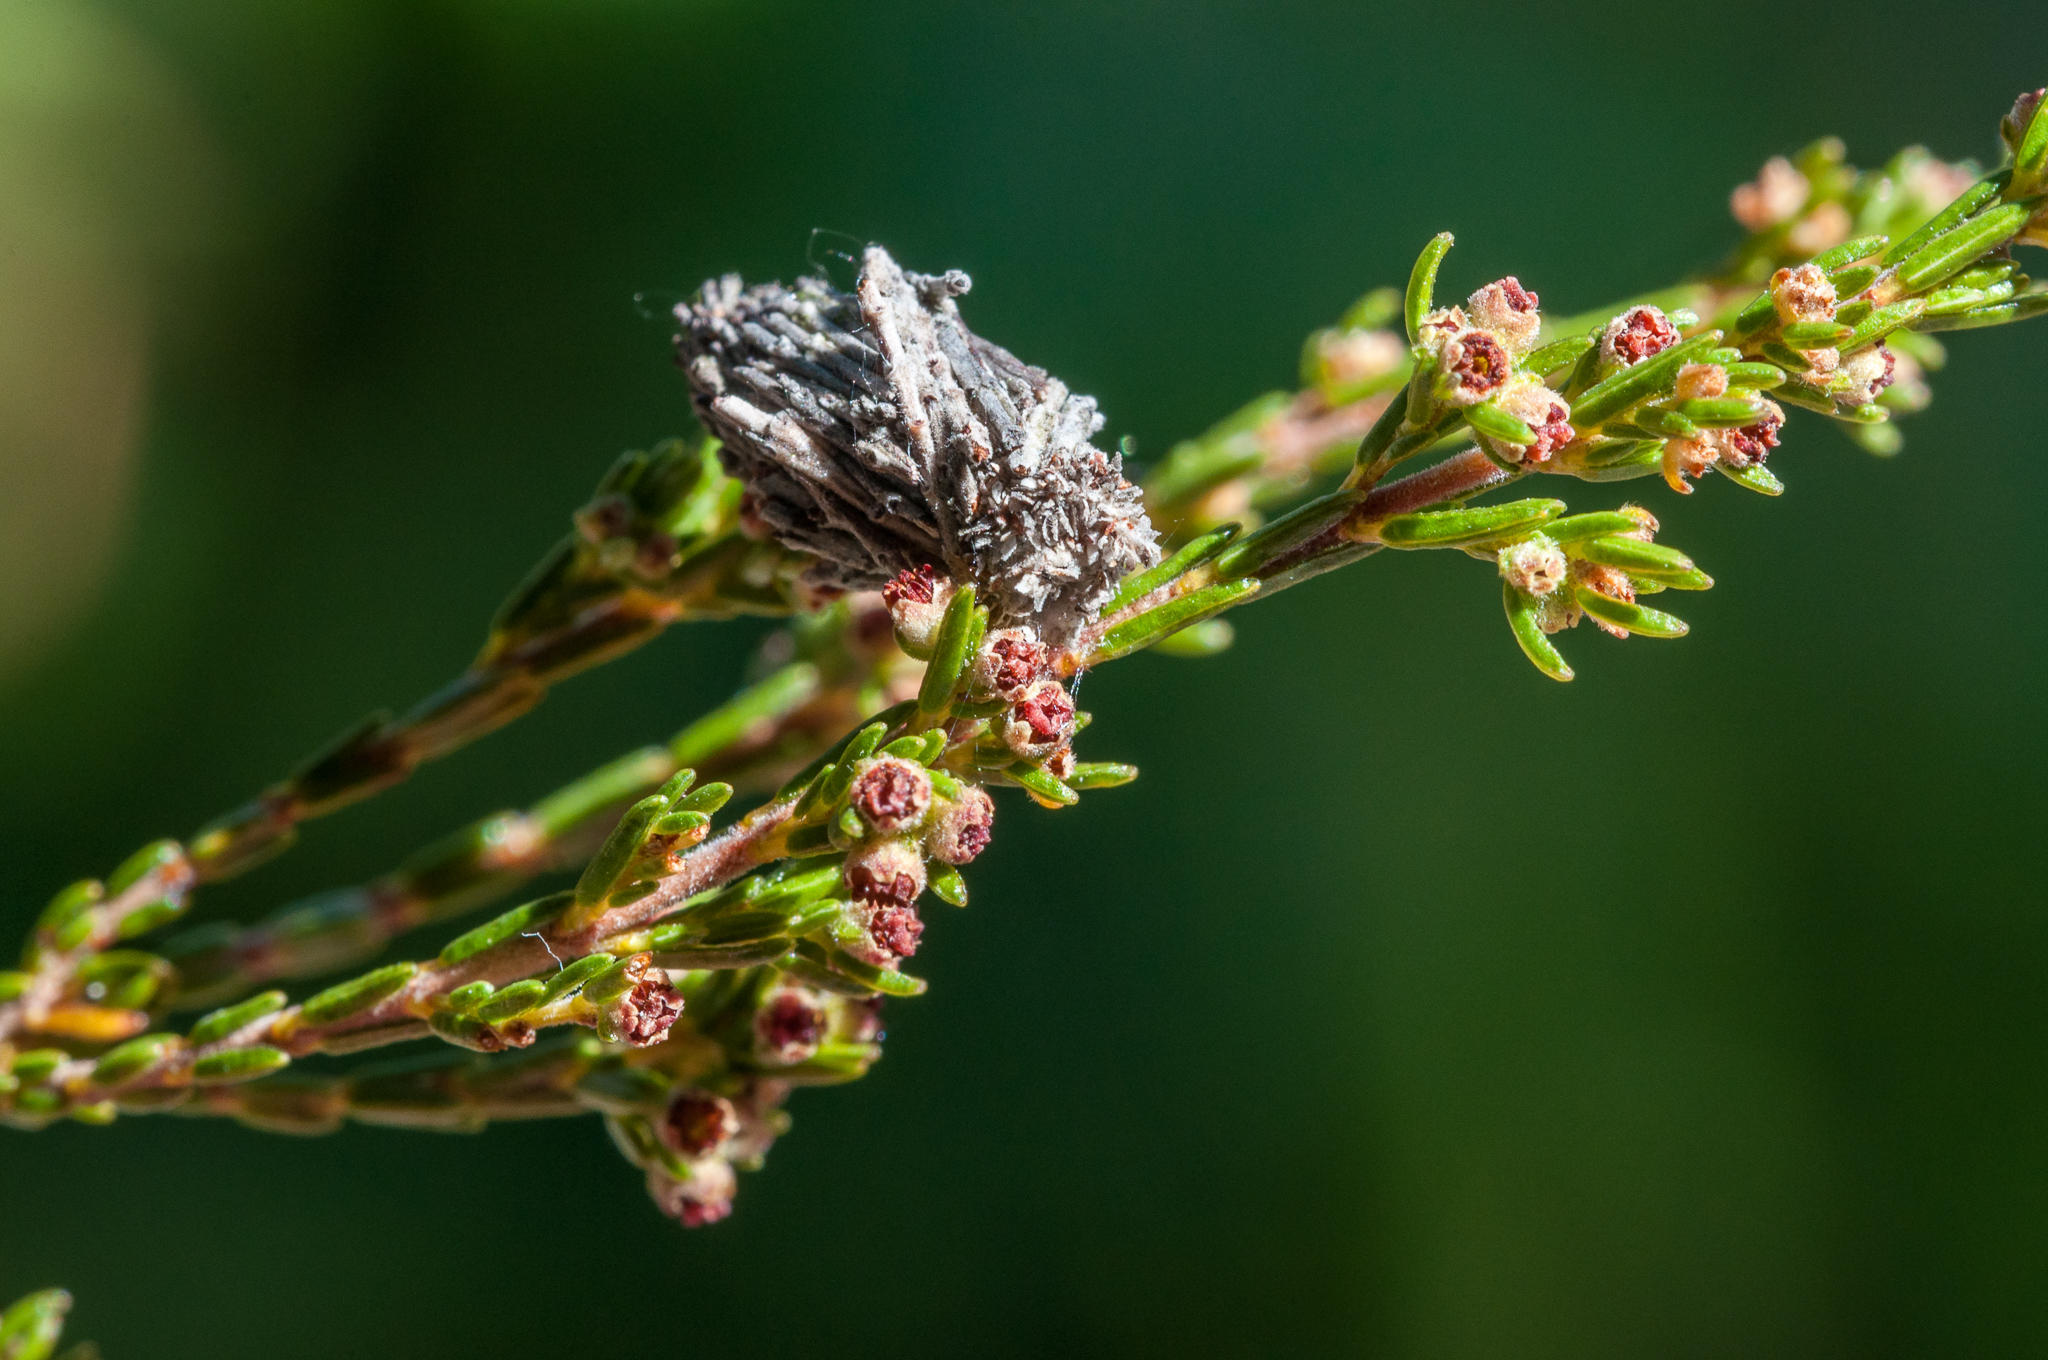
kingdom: Plantae
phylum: Tracheophyta
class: Magnoliopsida
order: Ericales
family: Ericaceae
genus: Erica
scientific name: Erica serrata
